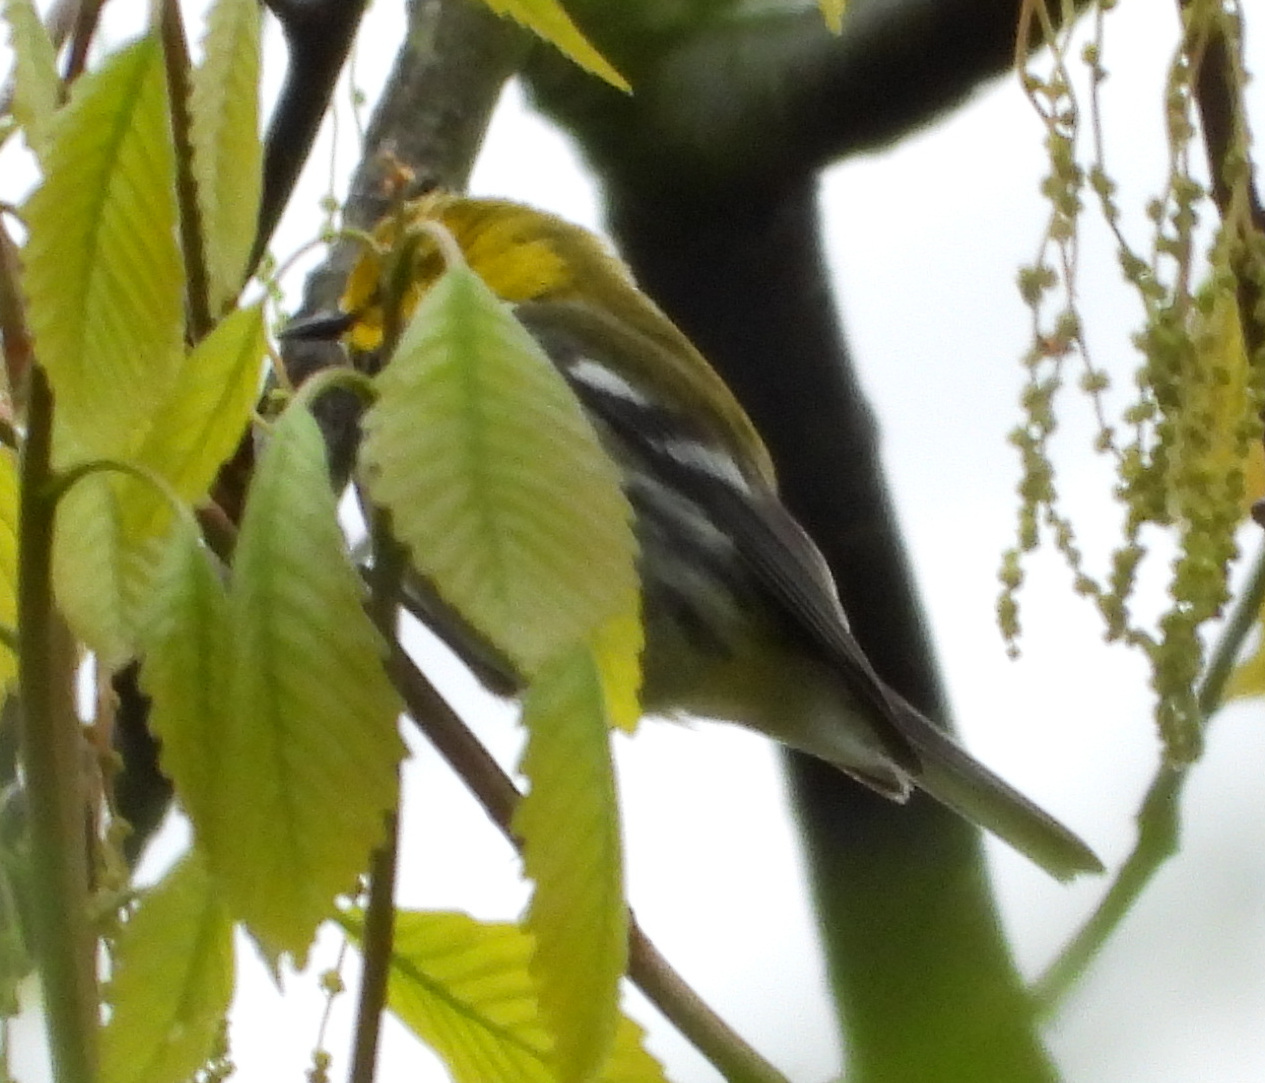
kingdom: Animalia
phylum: Chordata
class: Aves
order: Passeriformes
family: Parulidae
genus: Setophaga
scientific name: Setophaga virens
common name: Black-throated green warbler
